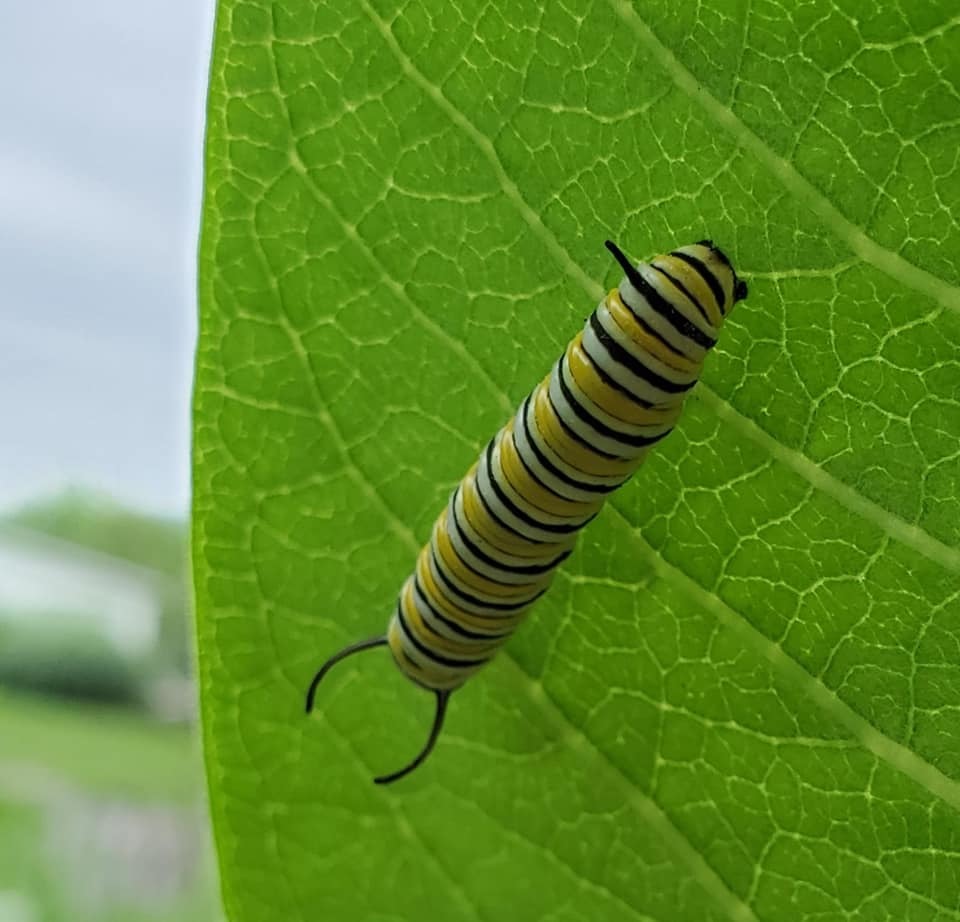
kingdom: Animalia
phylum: Arthropoda
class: Insecta
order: Lepidoptera
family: Nymphalidae
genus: Danaus
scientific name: Danaus plexippus
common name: Monarch
